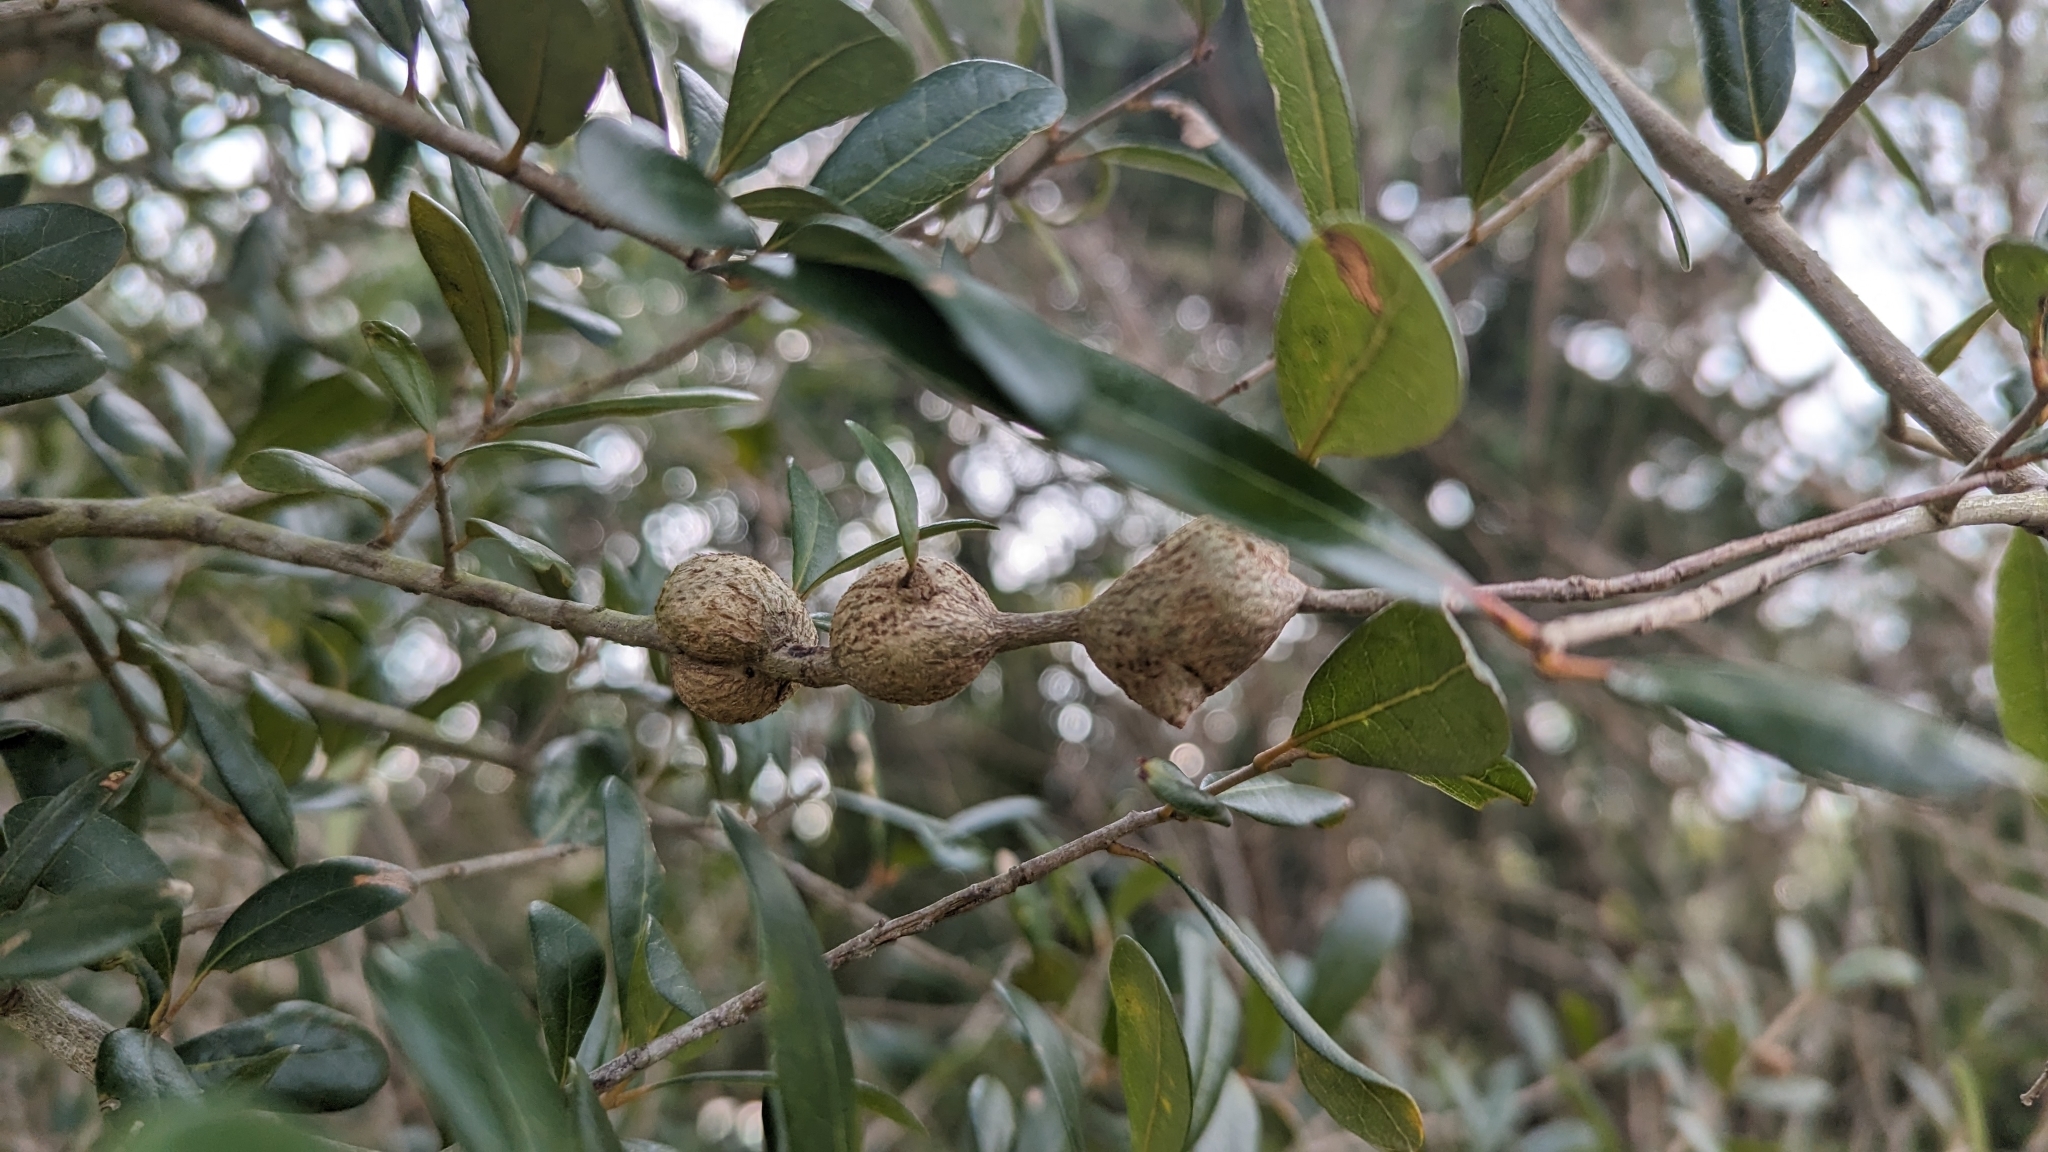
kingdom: Animalia
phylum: Arthropoda
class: Insecta
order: Hymenoptera
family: Cynipidae
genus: Callirhytis
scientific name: Callirhytis
